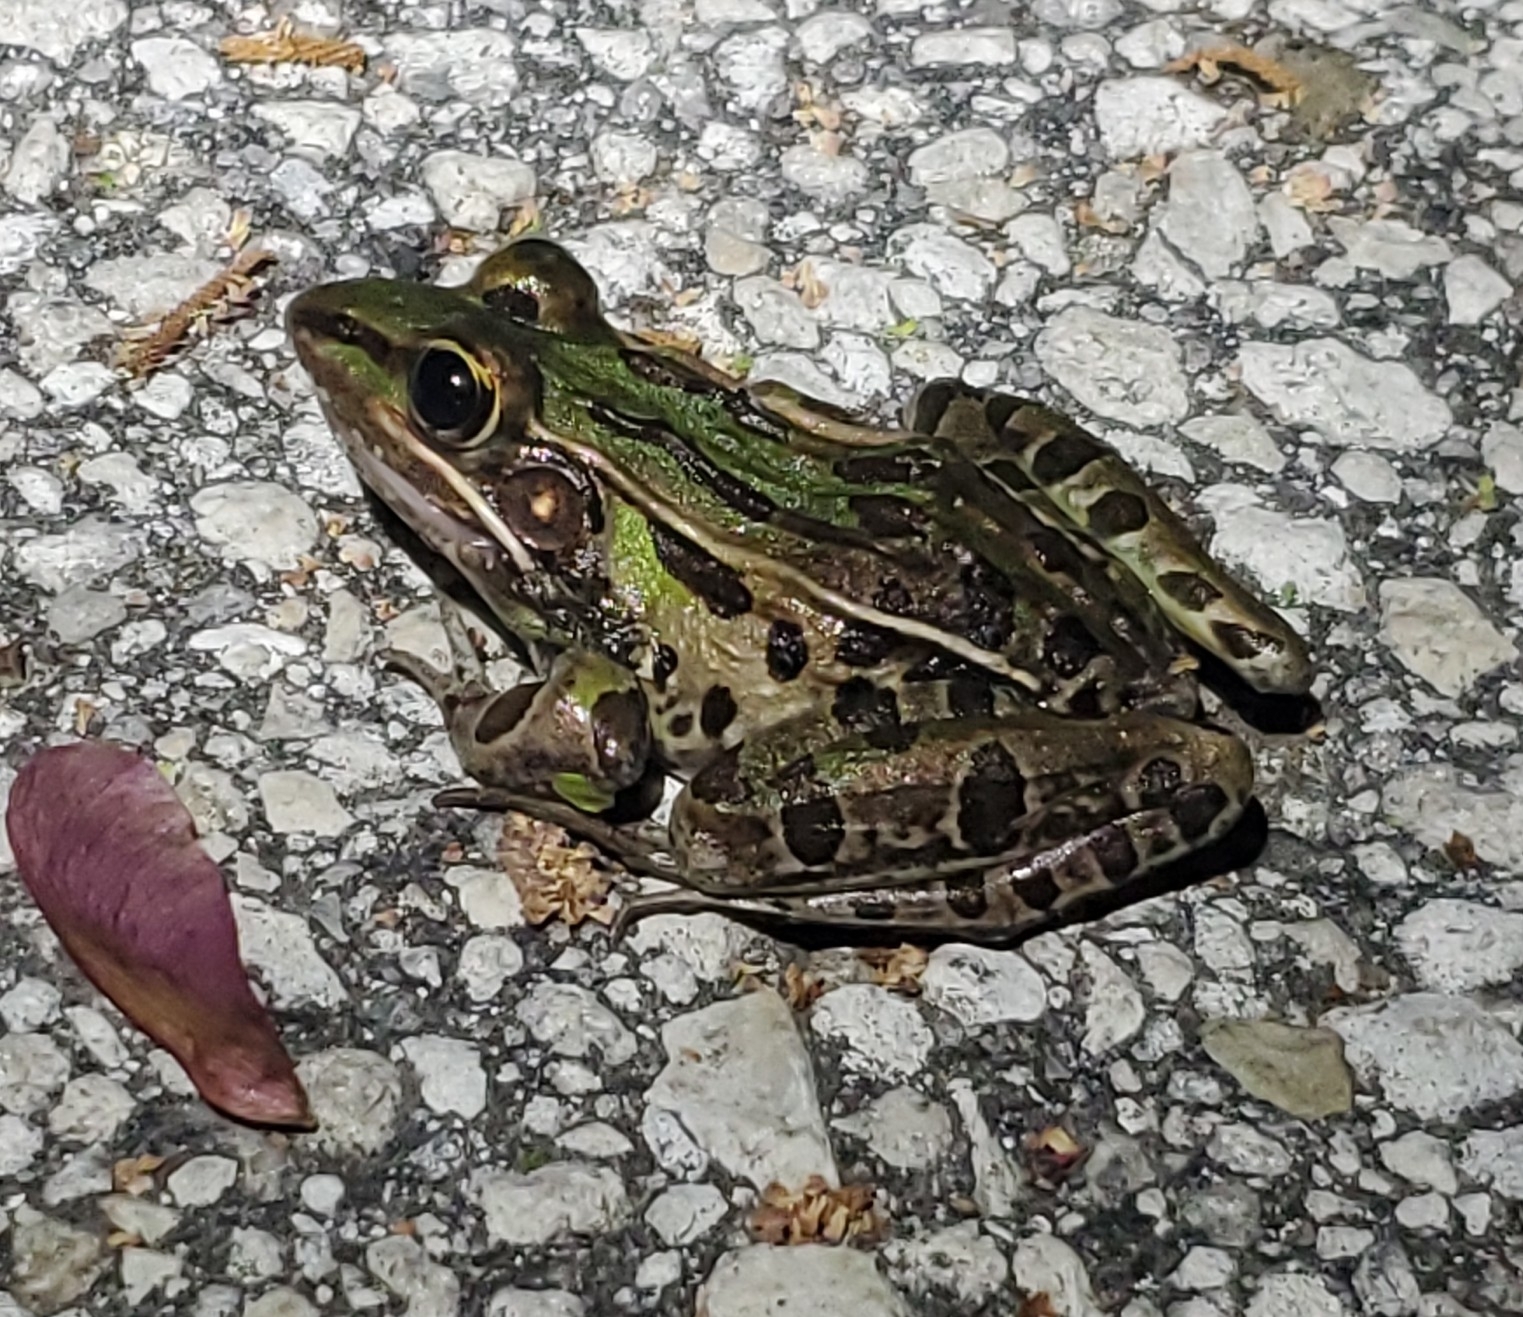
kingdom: Animalia
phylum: Chordata
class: Amphibia
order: Anura
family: Ranidae
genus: Lithobates
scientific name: Lithobates sphenocephalus
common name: Southern leopard frog
